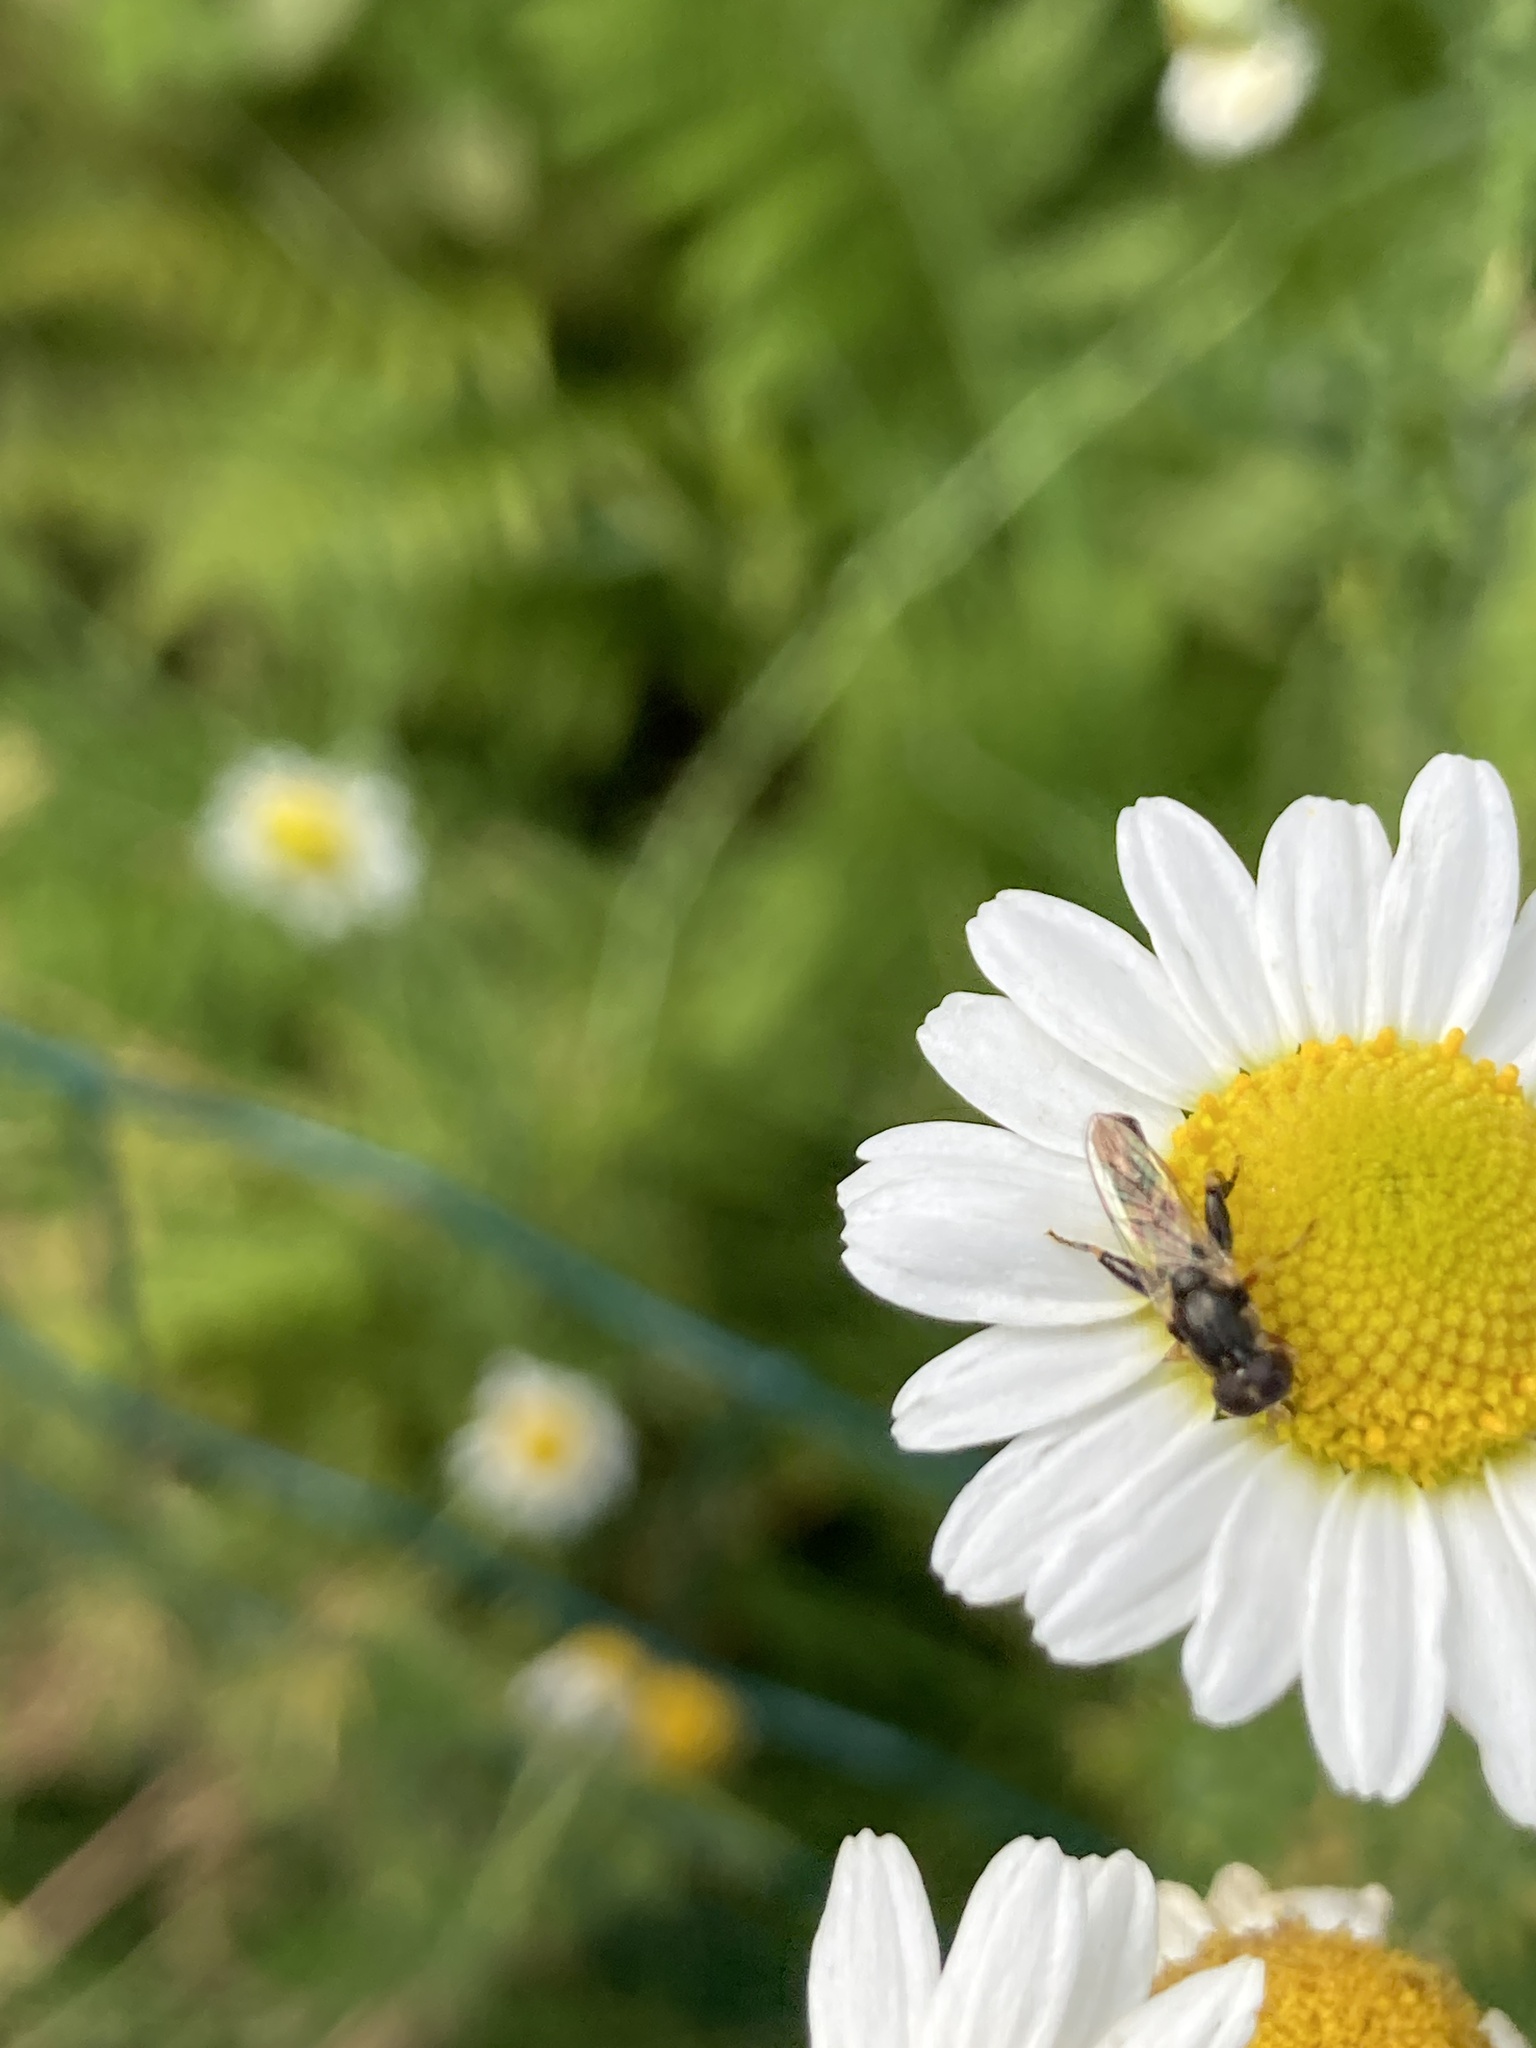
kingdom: Animalia
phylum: Arthropoda
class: Insecta
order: Diptera
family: Syrphidae
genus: Syritta
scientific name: Syritta pipiens
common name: Hover fly
